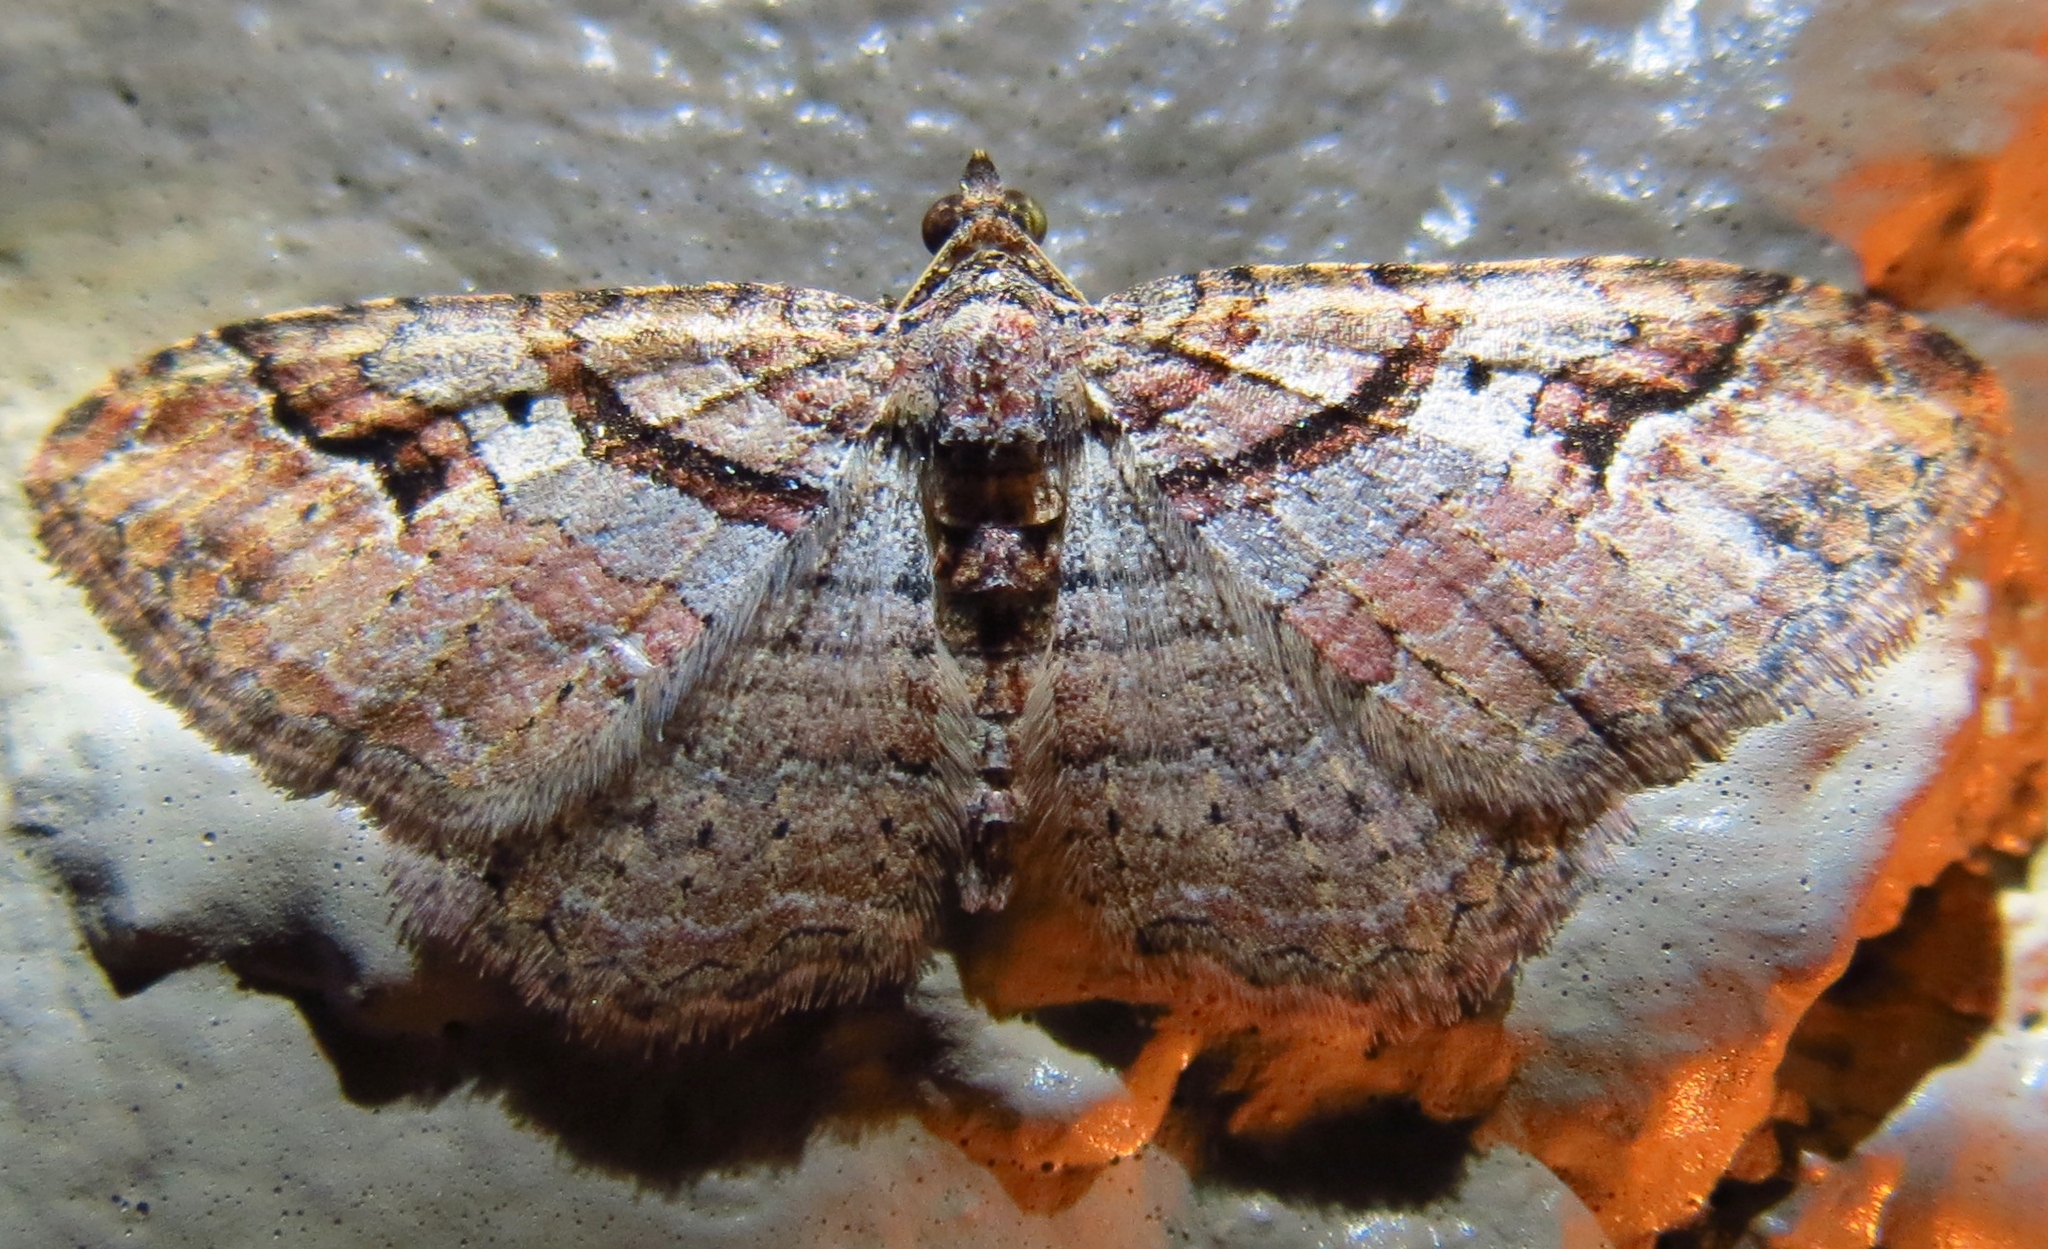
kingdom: Animalia
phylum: Arthropoda
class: Insecta
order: Lepidoptera
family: Geometridae
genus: Costaconvexa
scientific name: Costaconvexa centrostrigaria
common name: Bent-line carpet
